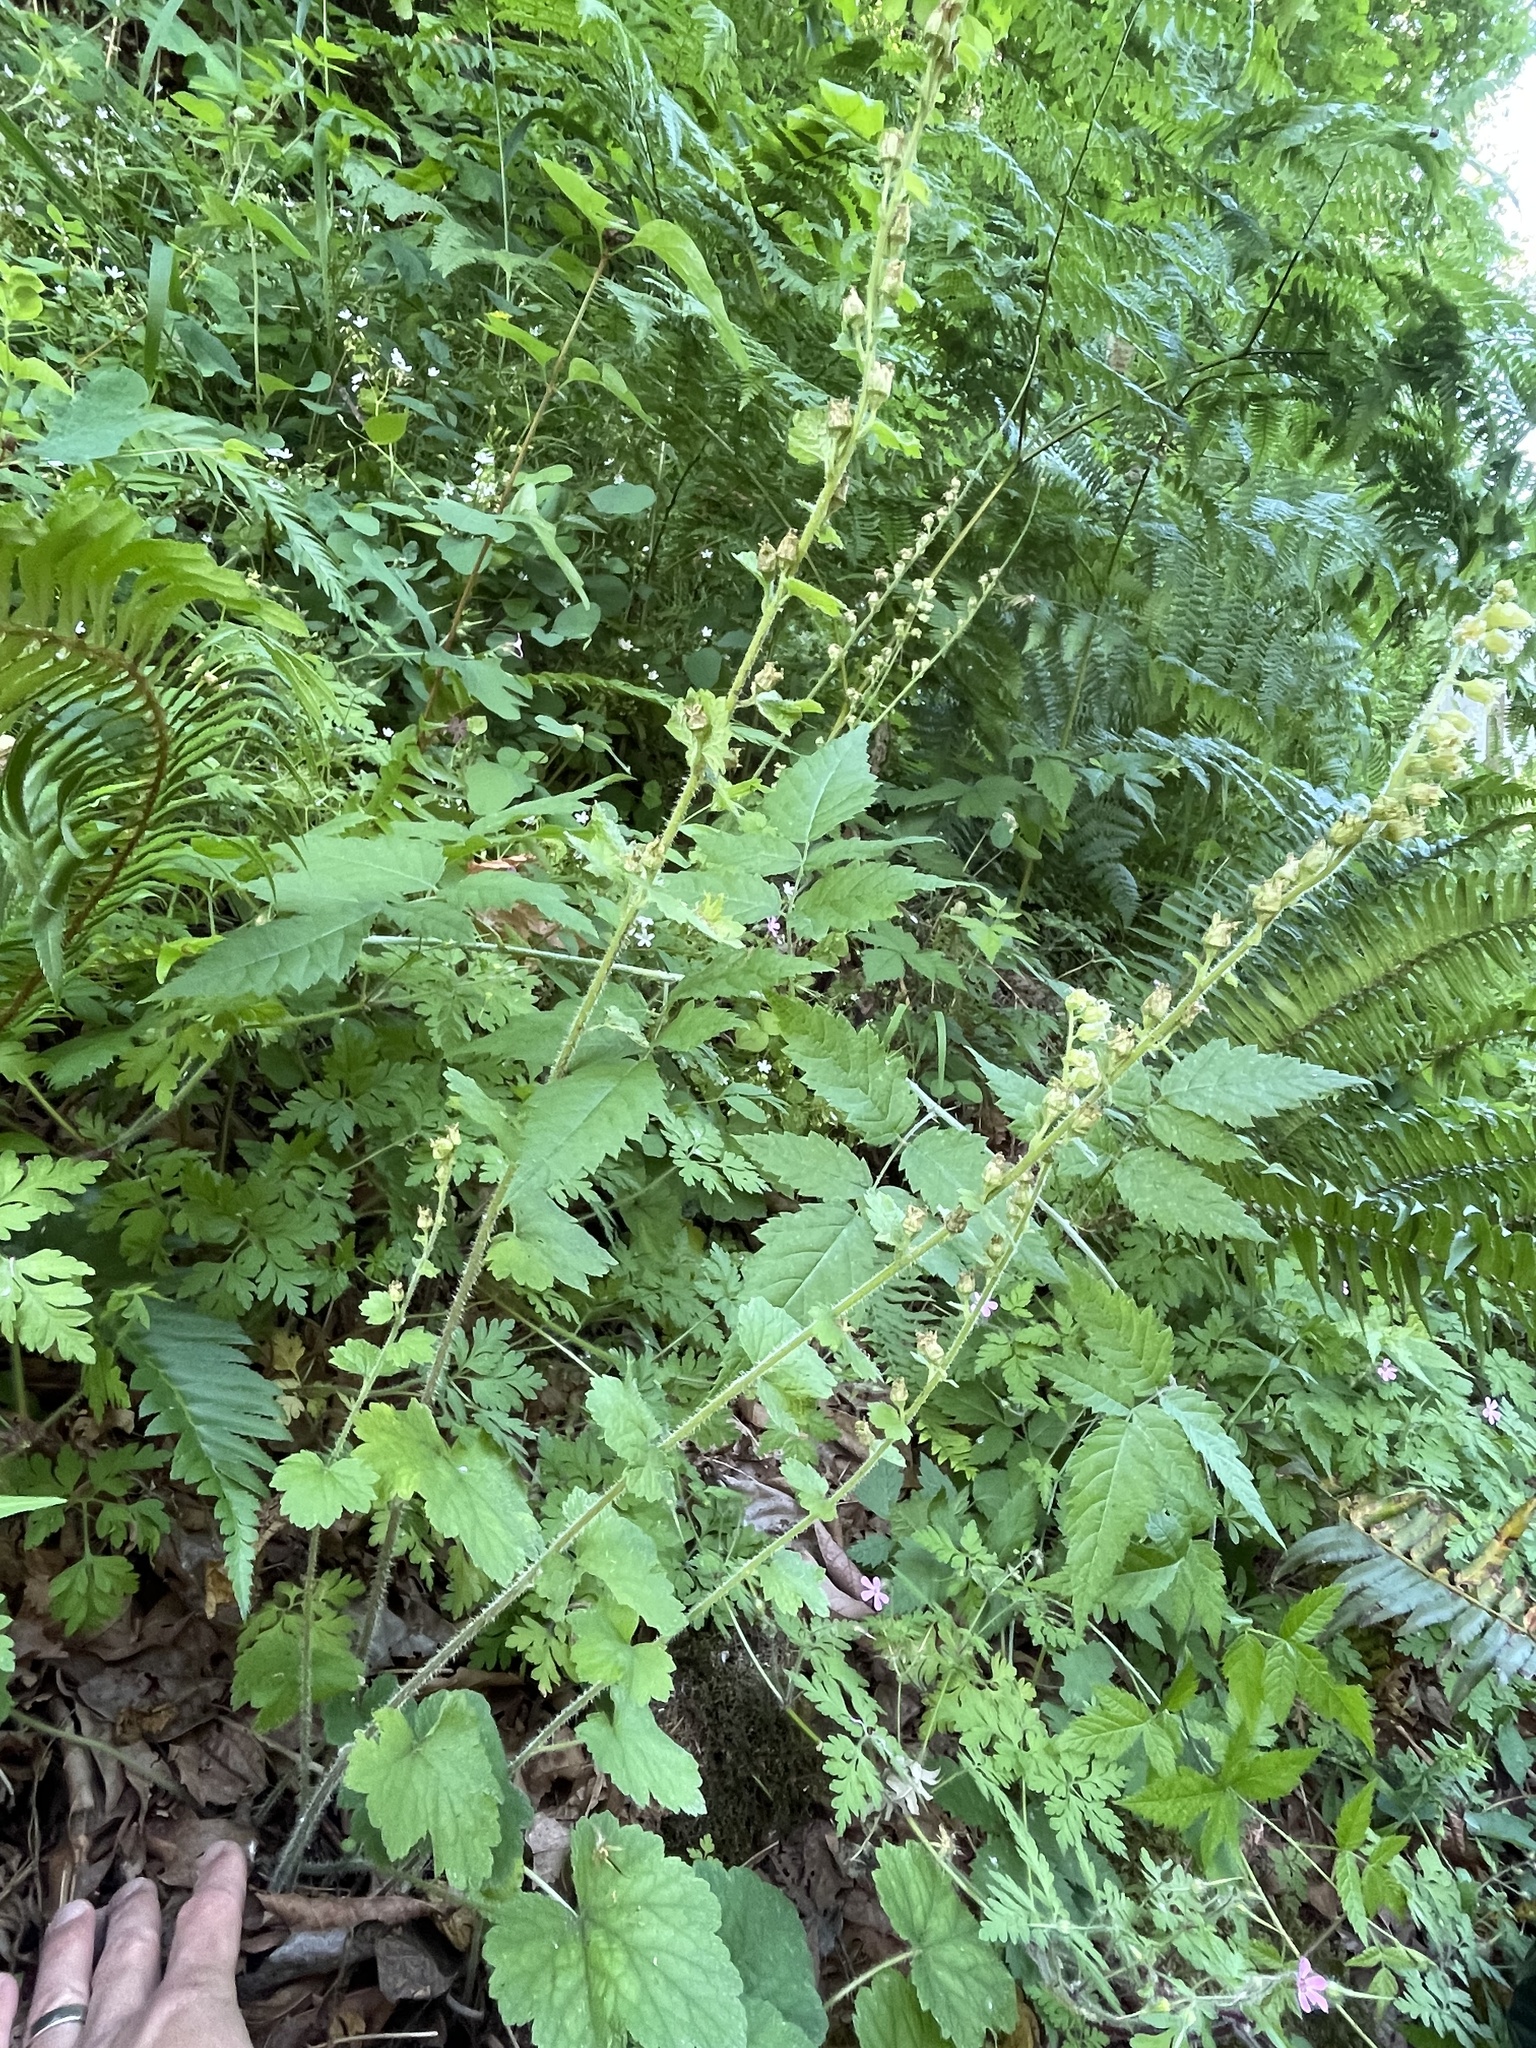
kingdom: Plantae
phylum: Tracheophyta
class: Magnoliopsida
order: Saxifragales
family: Saxifragaceae
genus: Tellima
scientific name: Tellima grandiflora
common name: Fringecups
